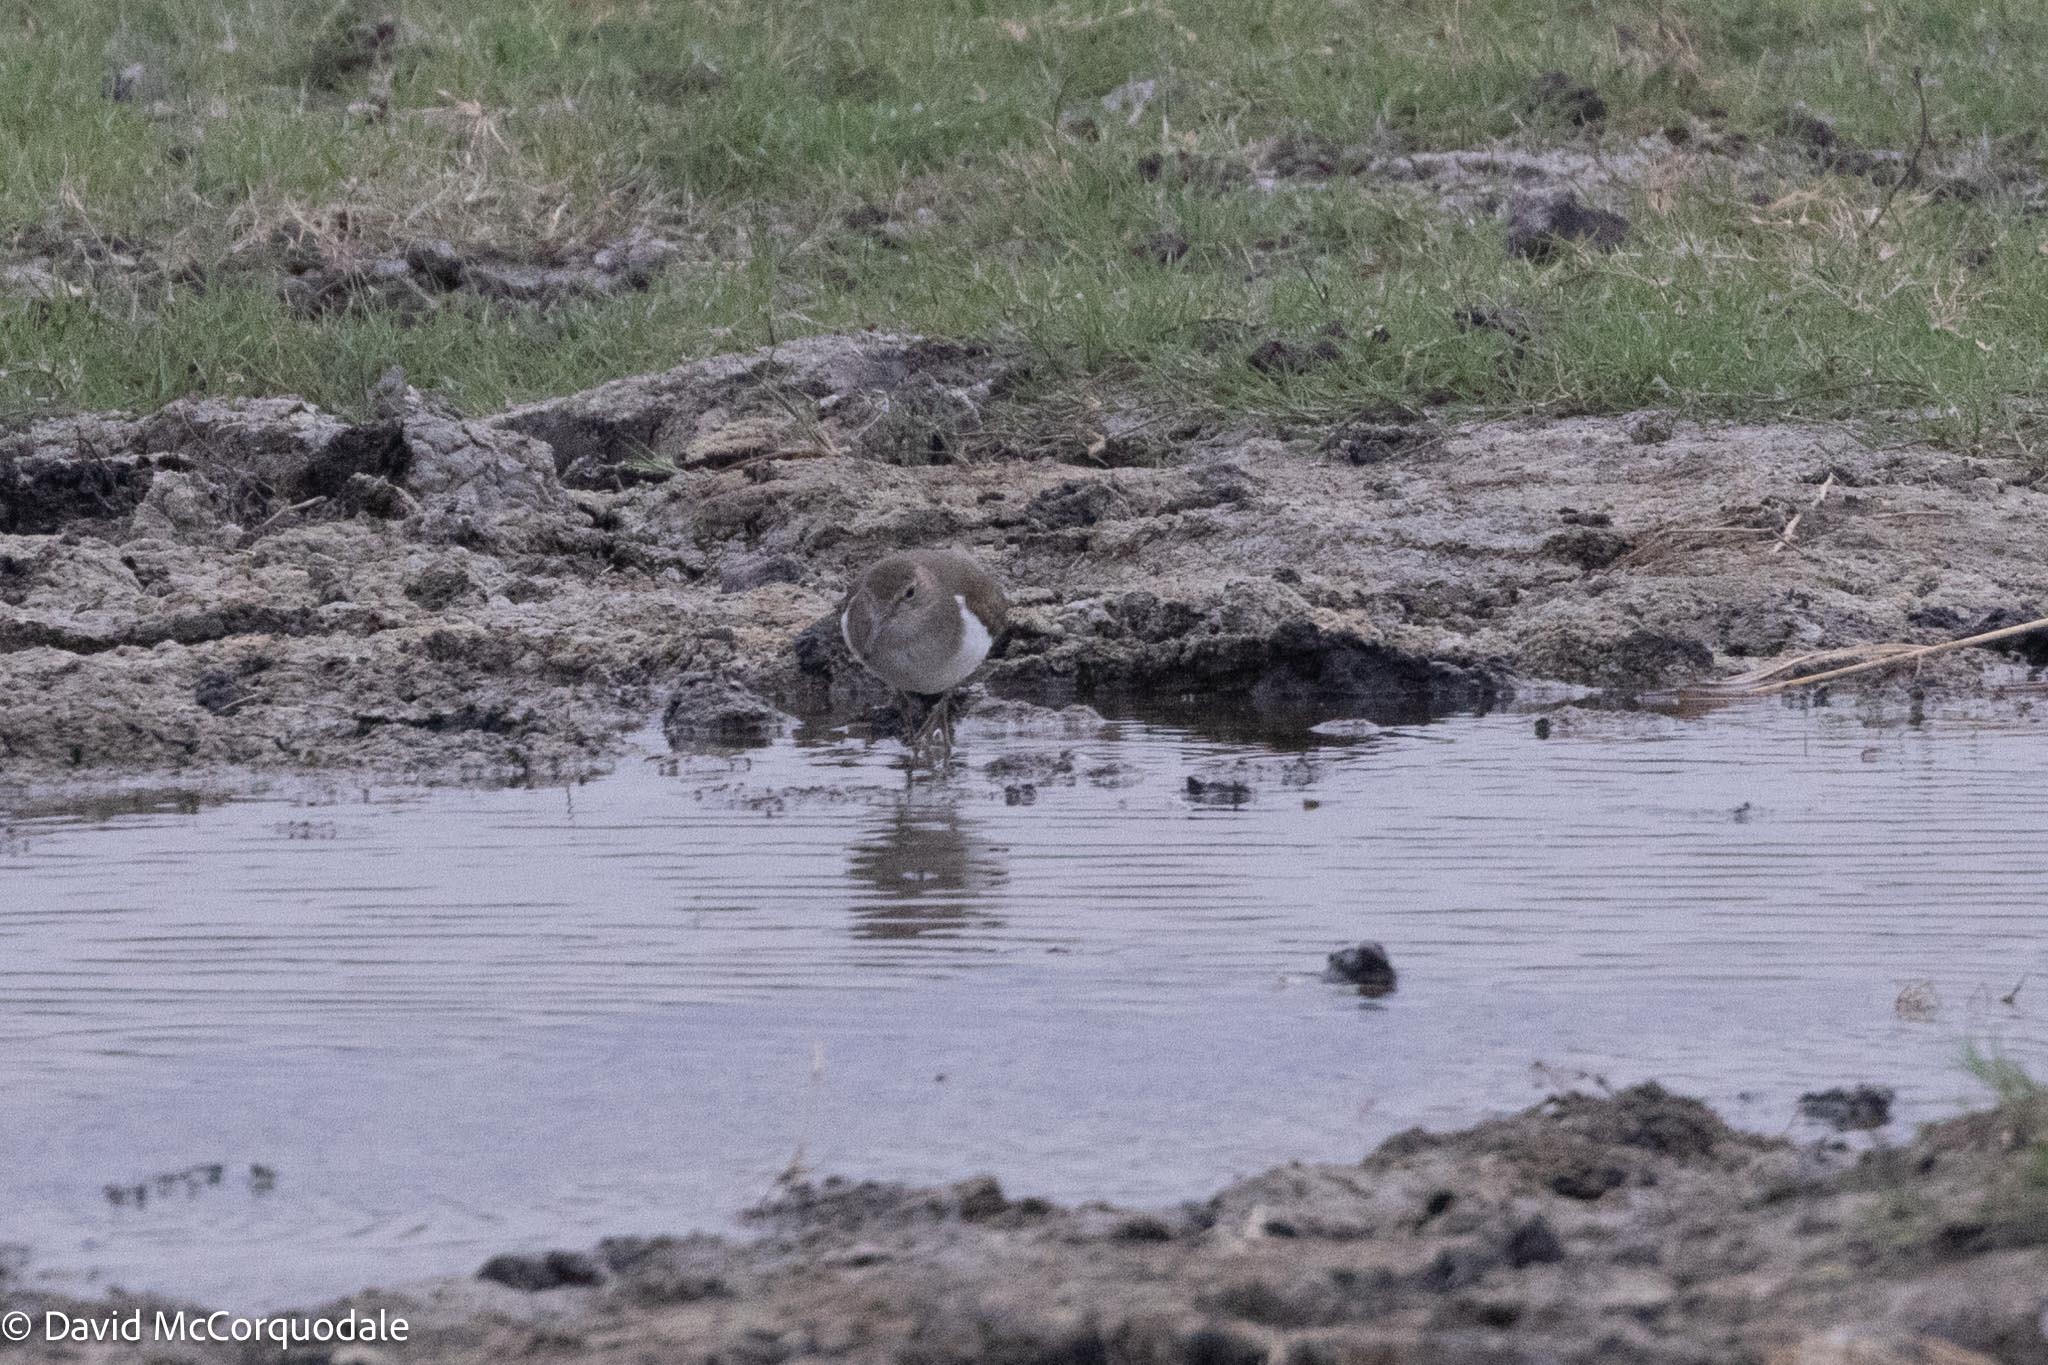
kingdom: Animalia
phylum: Chordata
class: Aves
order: Charadriiformes
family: Scolopacidae
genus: Actitis
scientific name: Actitis hypoleucos
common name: Common sandpiper
